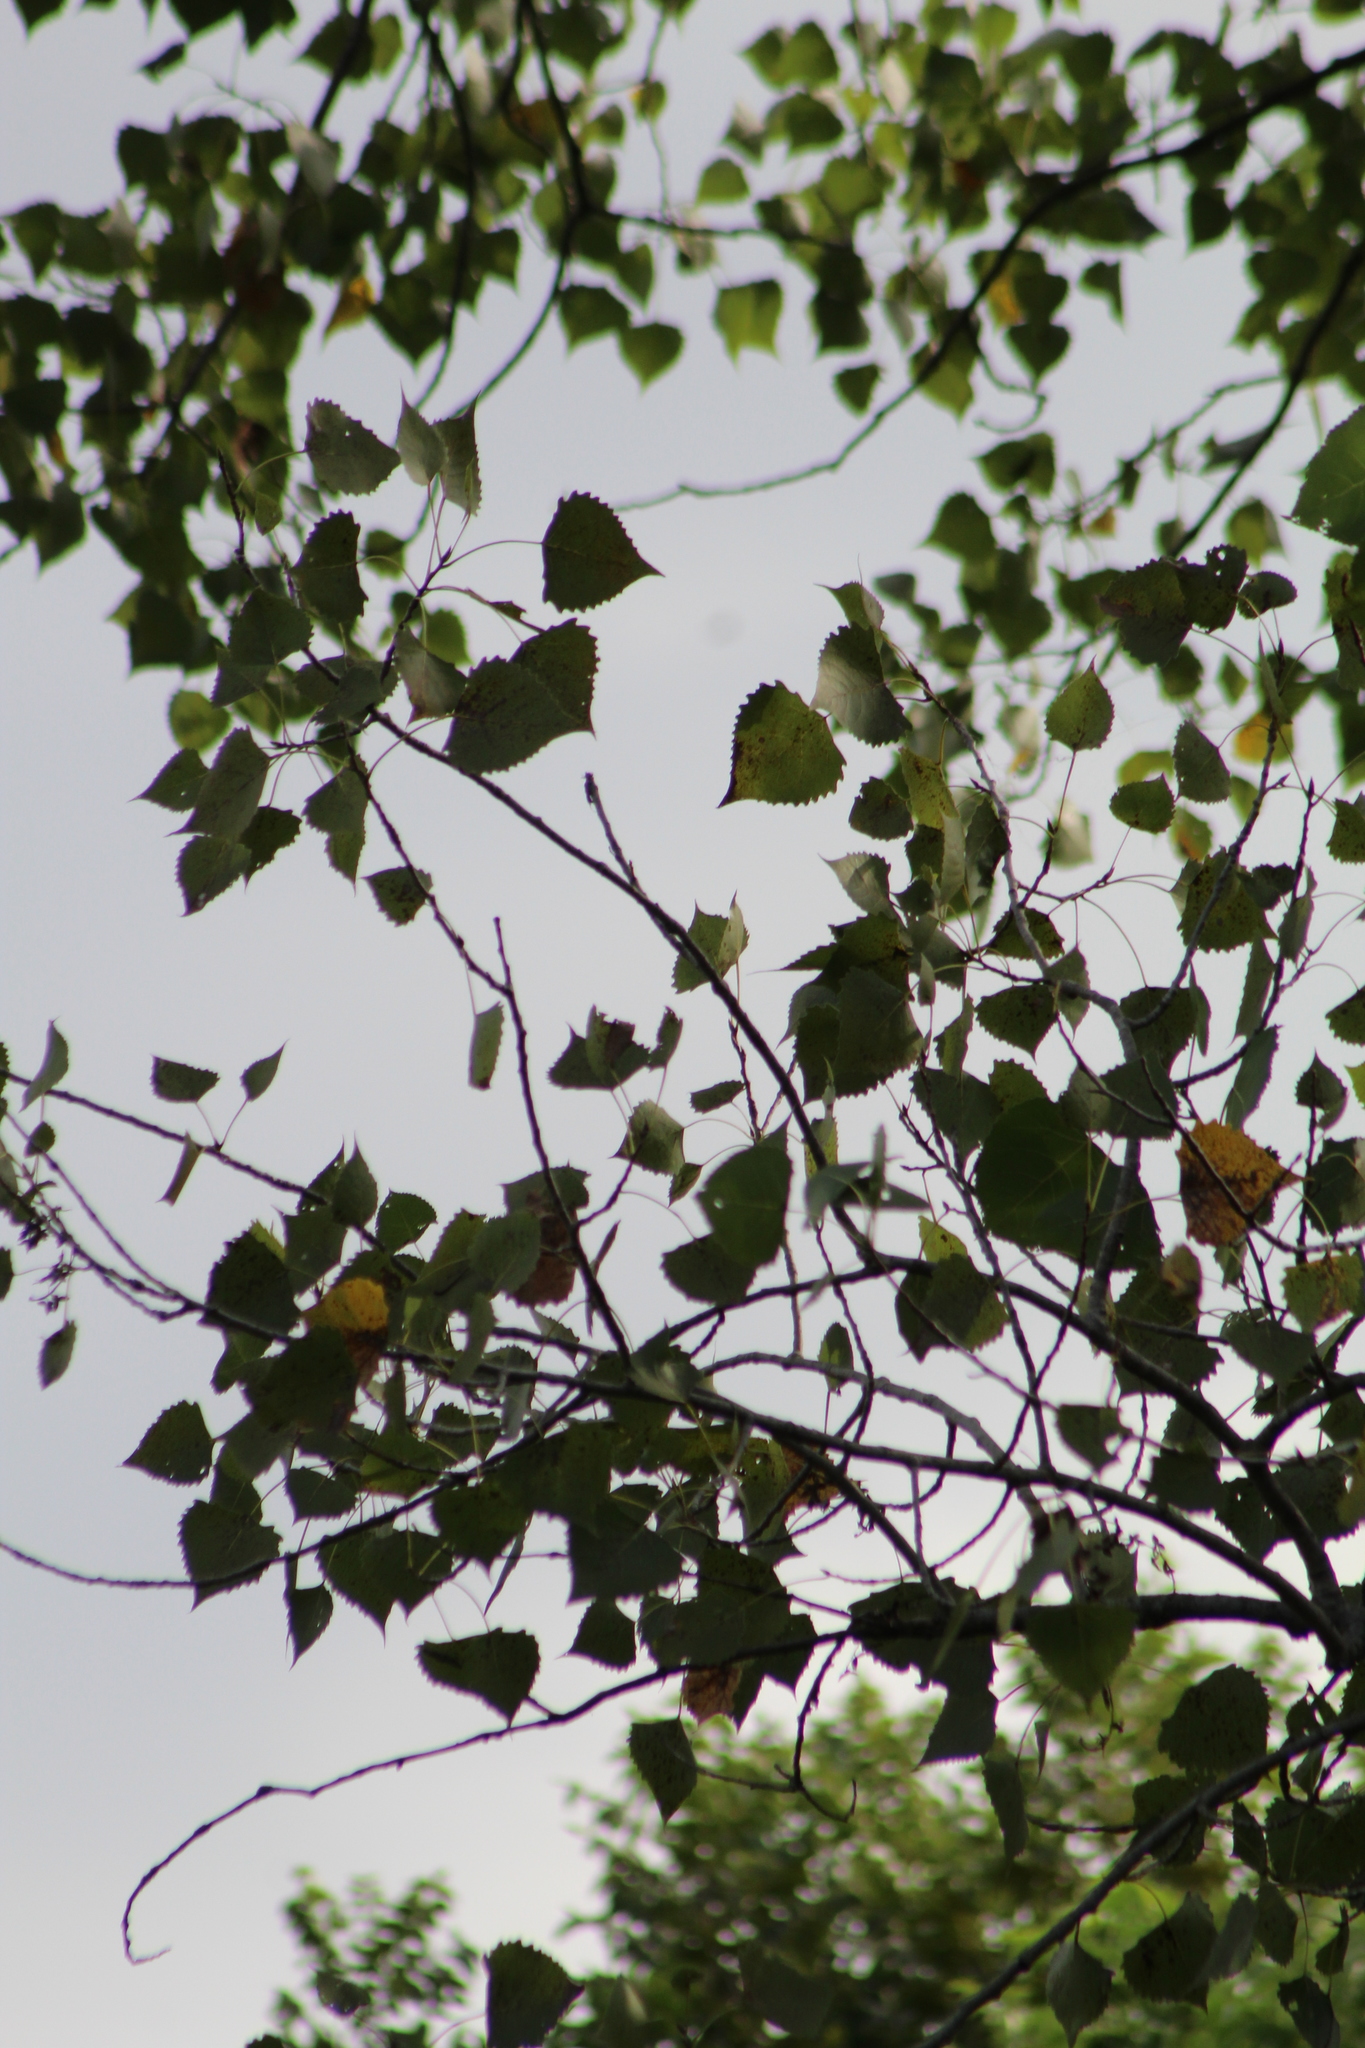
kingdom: Plantae
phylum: Tracheophyta
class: Magnoliopsida
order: Malpighiales
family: Salicaceae
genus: Populus
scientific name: Populus deltoides
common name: Eastern cottonwood
